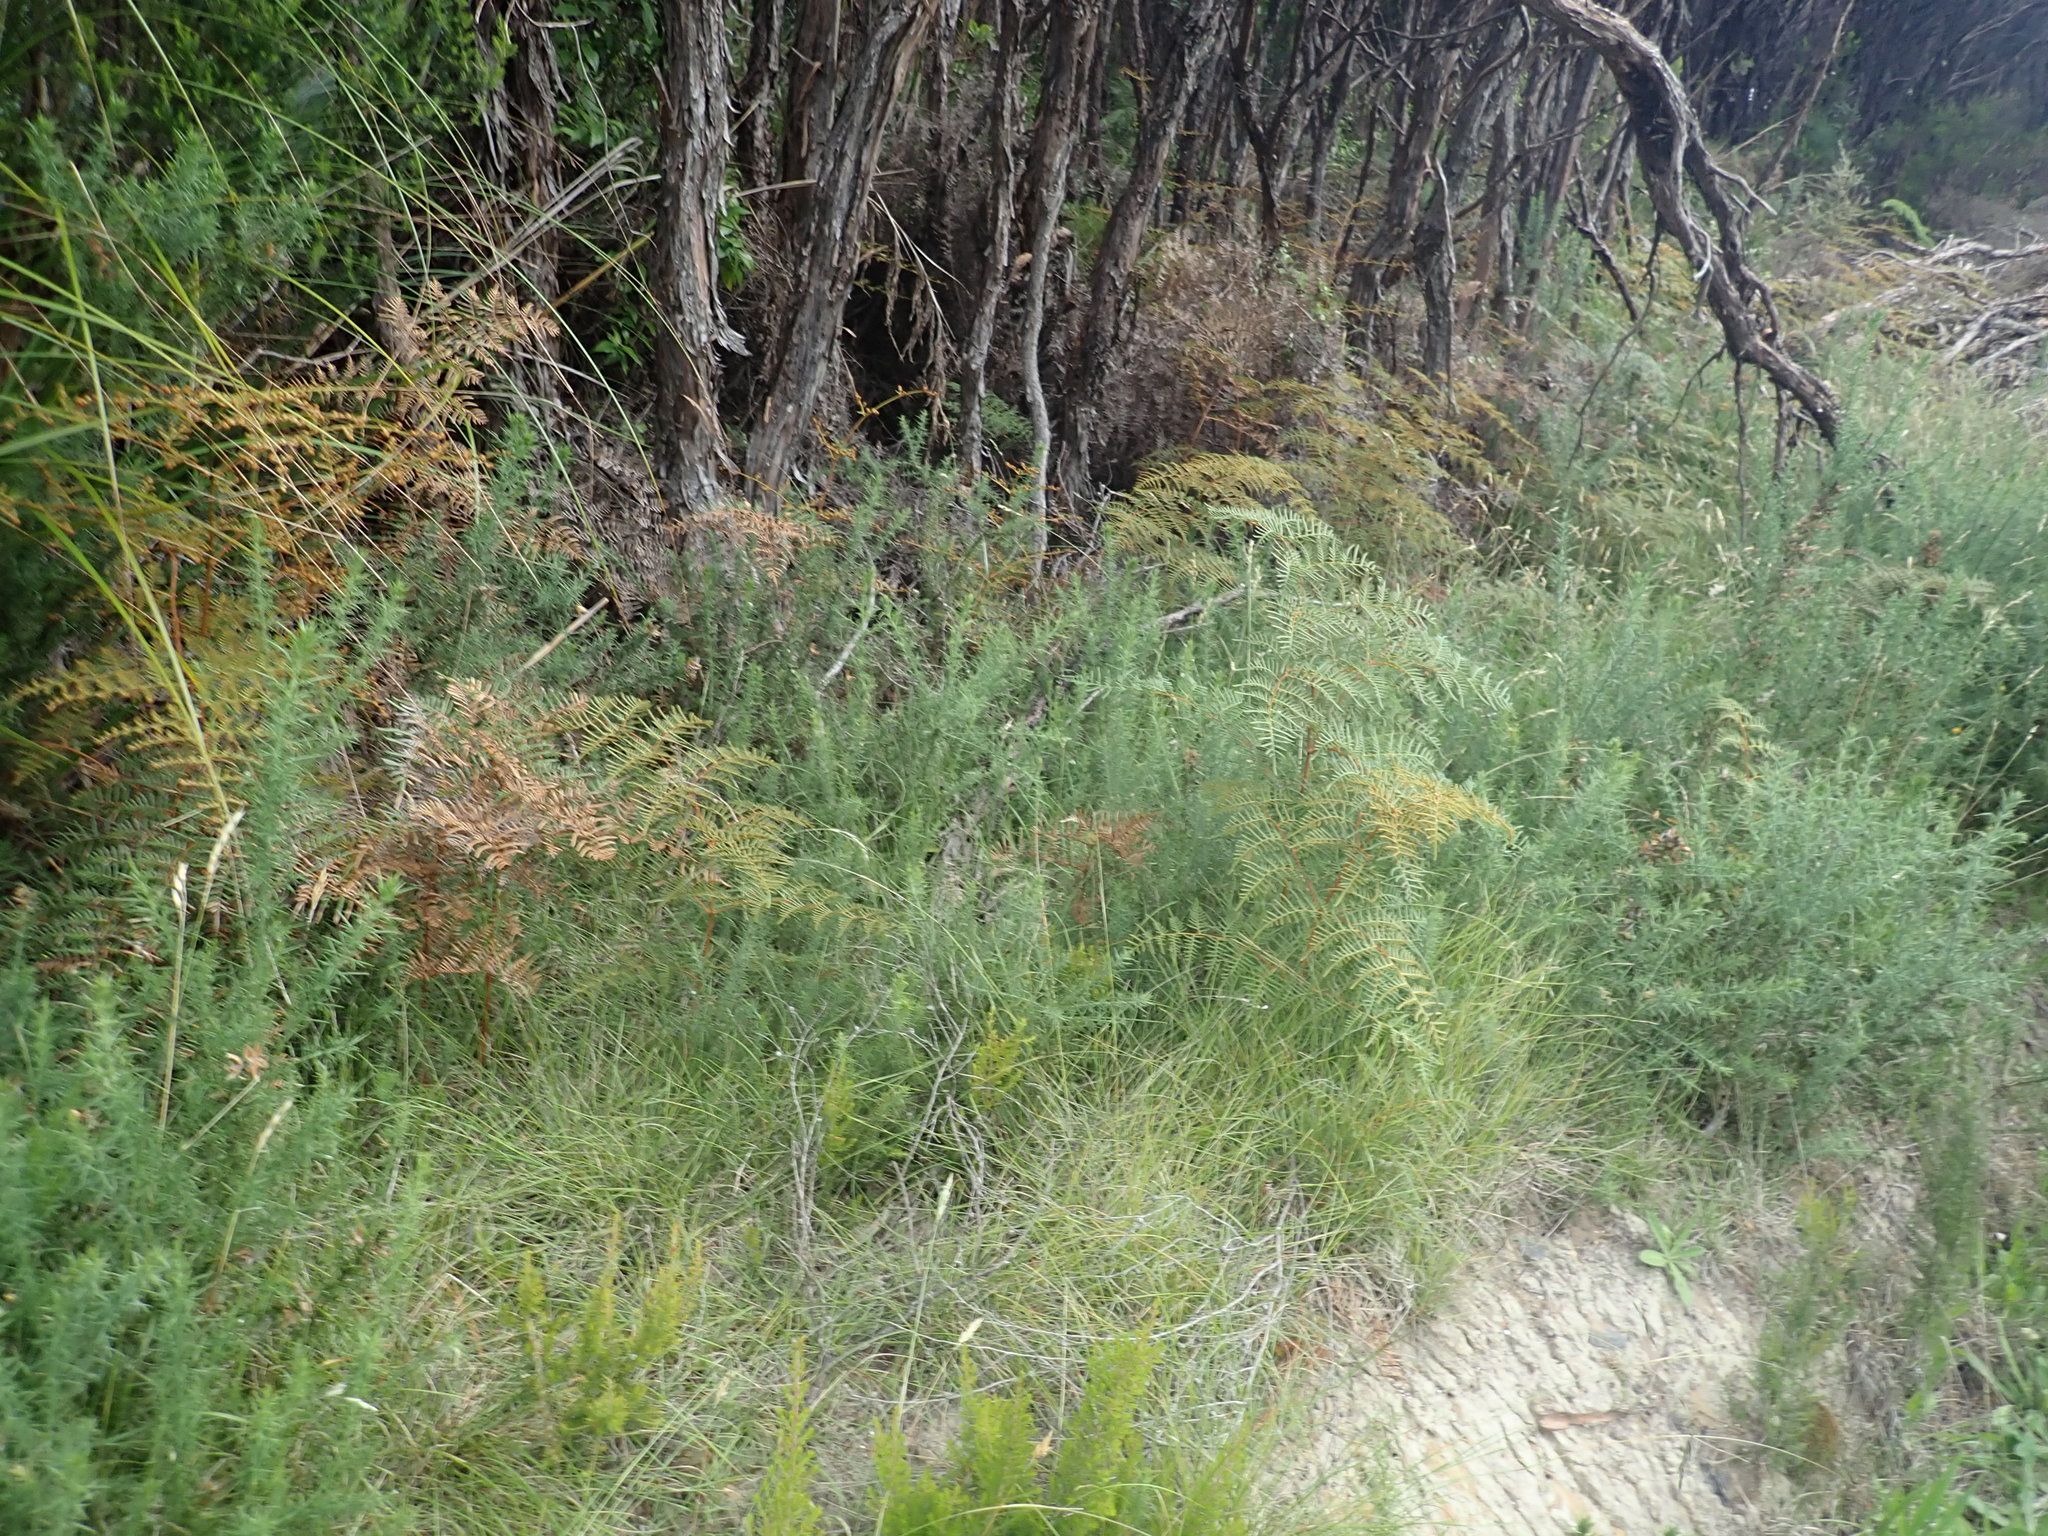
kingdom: Plantae
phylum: Tracheophyta
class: Polypodiopsida
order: Polypodiales
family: Dennstaedtiaceae
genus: Pteridium
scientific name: Pteridium esculentum
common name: Bracken fern
